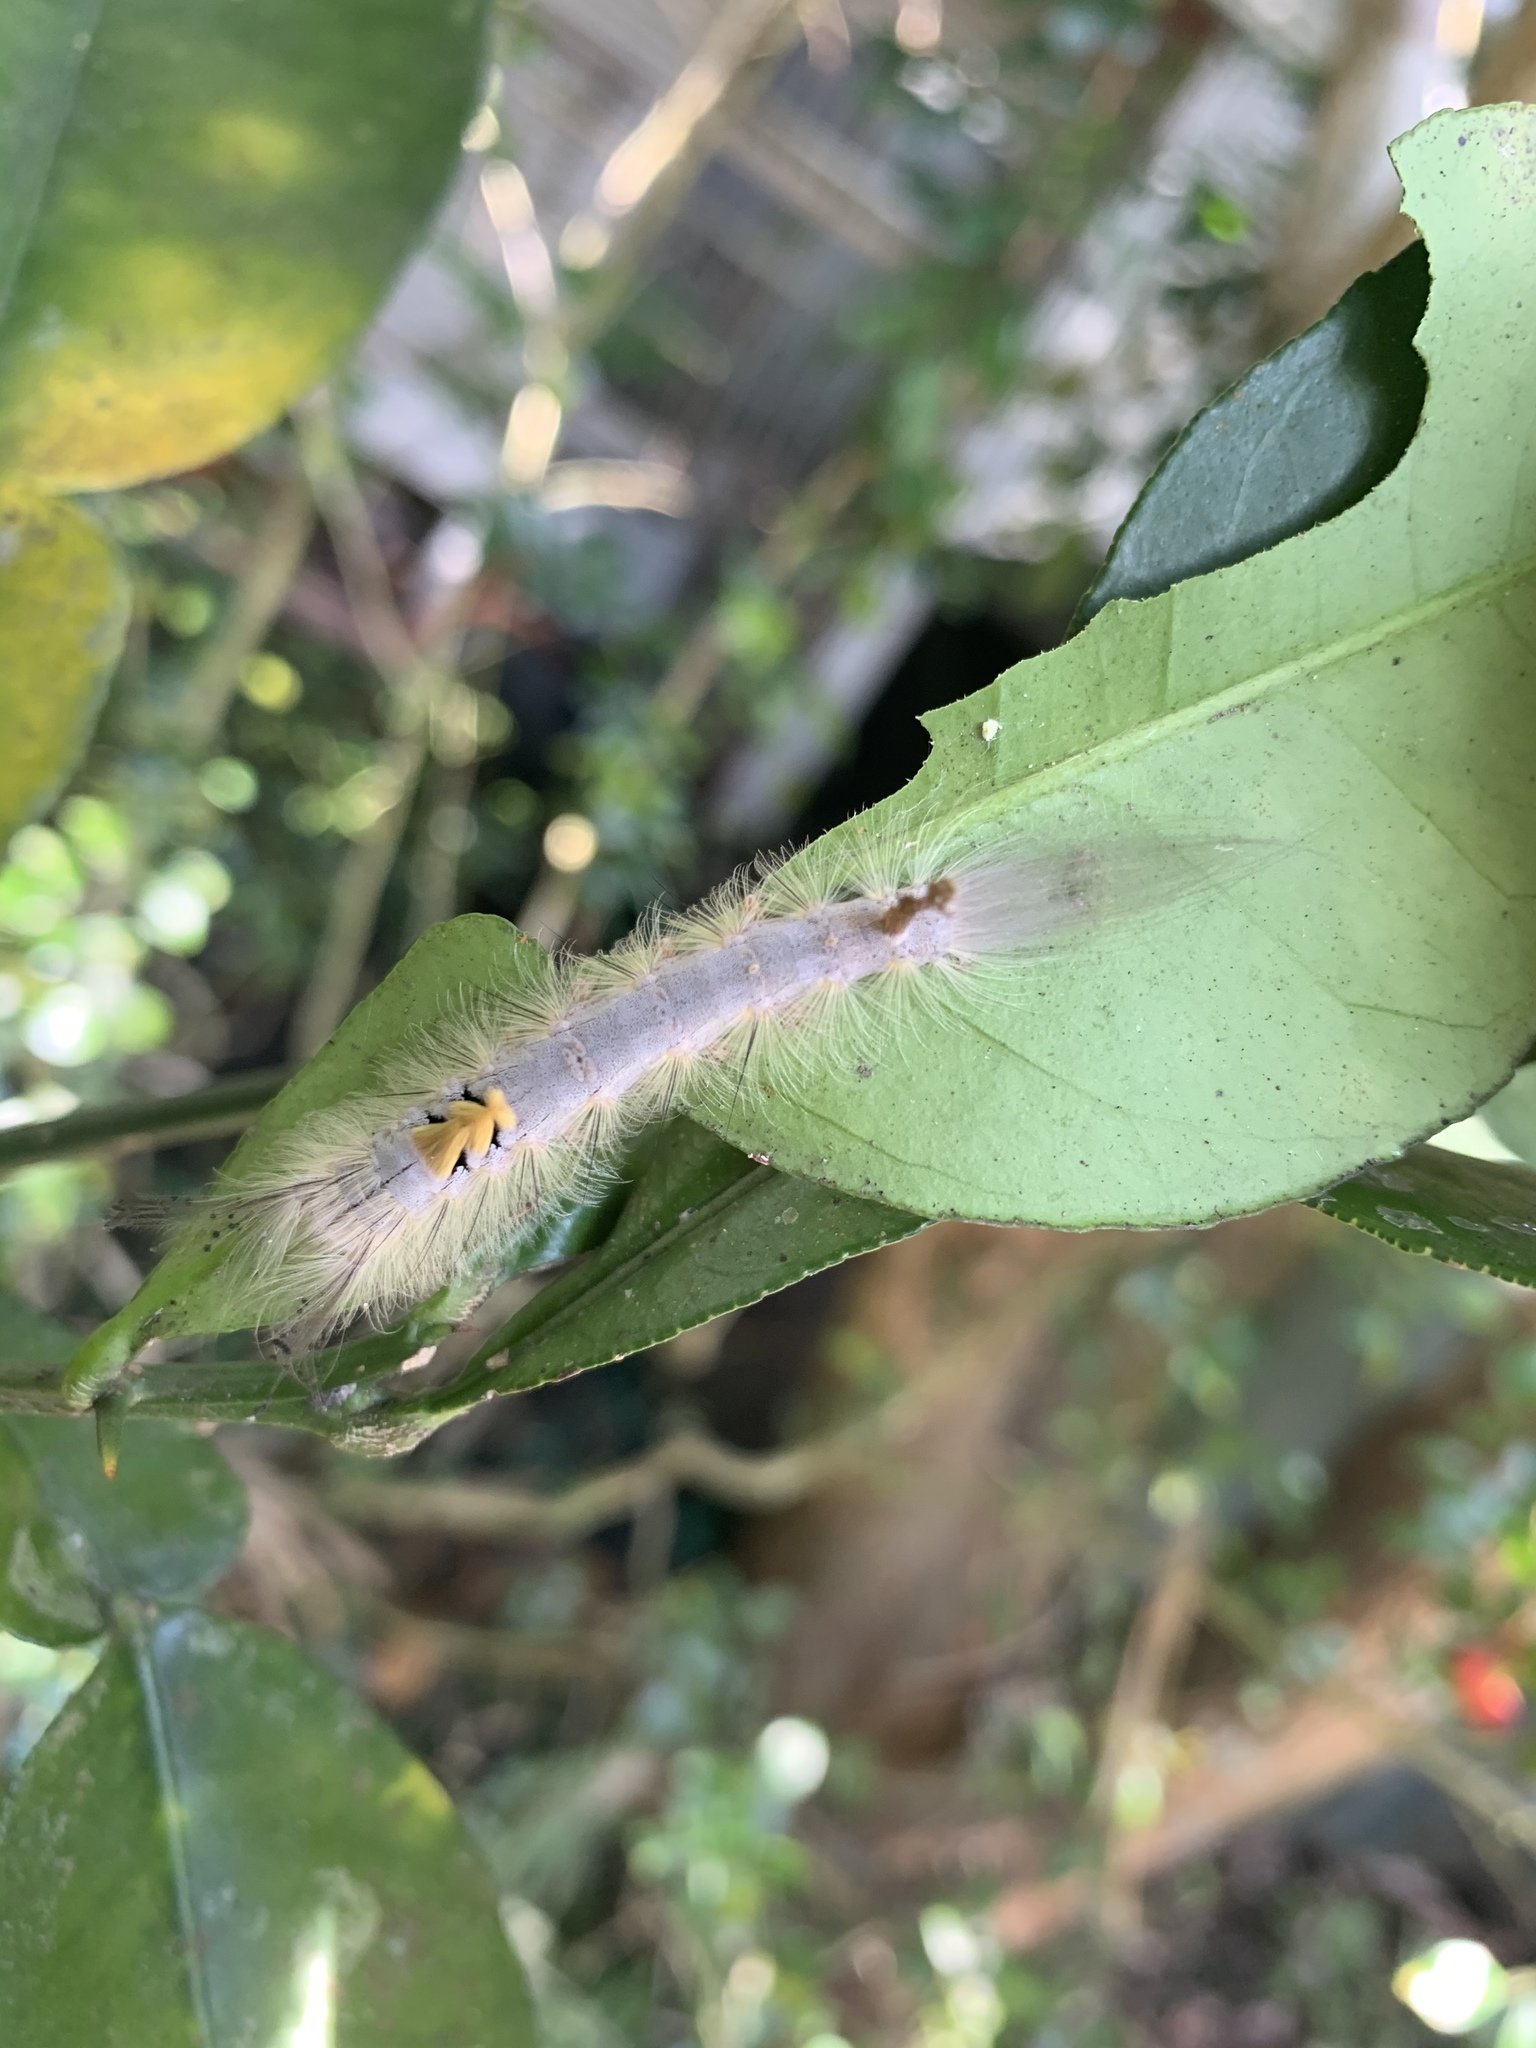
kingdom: Animalia
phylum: Arthropoda
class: Insecta
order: Lepidoptera
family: Erebidae
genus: Olene
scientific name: Olene dudgeoni
